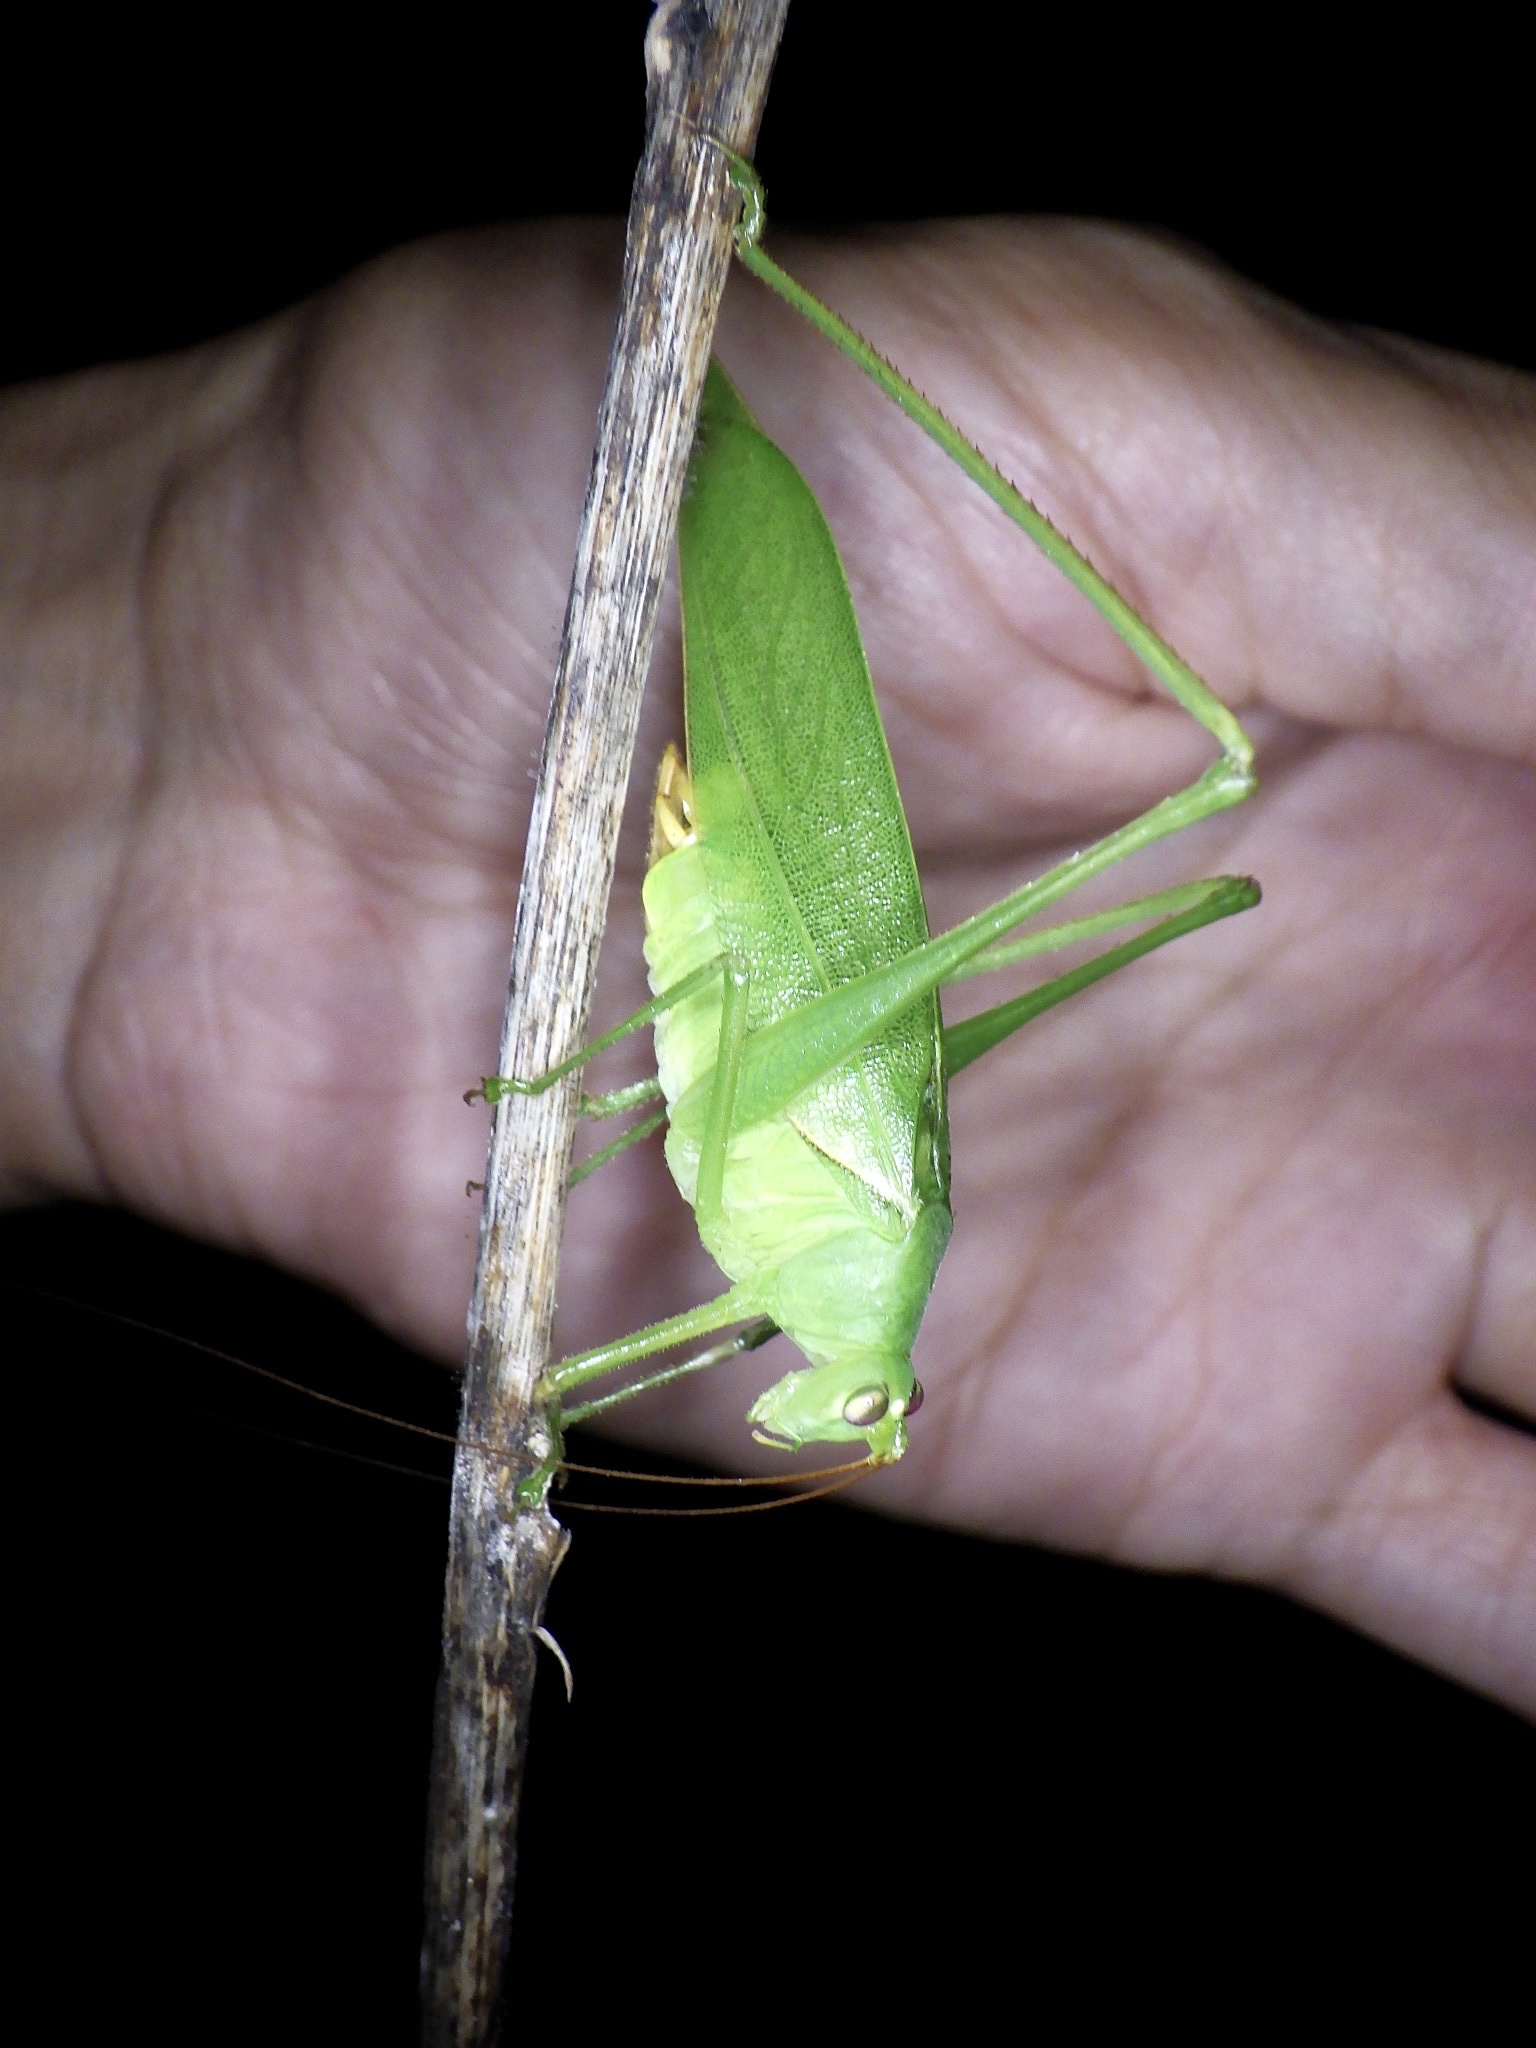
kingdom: Animalia
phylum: Arthropoda
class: Insecta
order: Orthoptera
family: Tettigoniidae
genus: Holochlora
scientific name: Holochlora japonica
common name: Japanese broadwinged katydid
